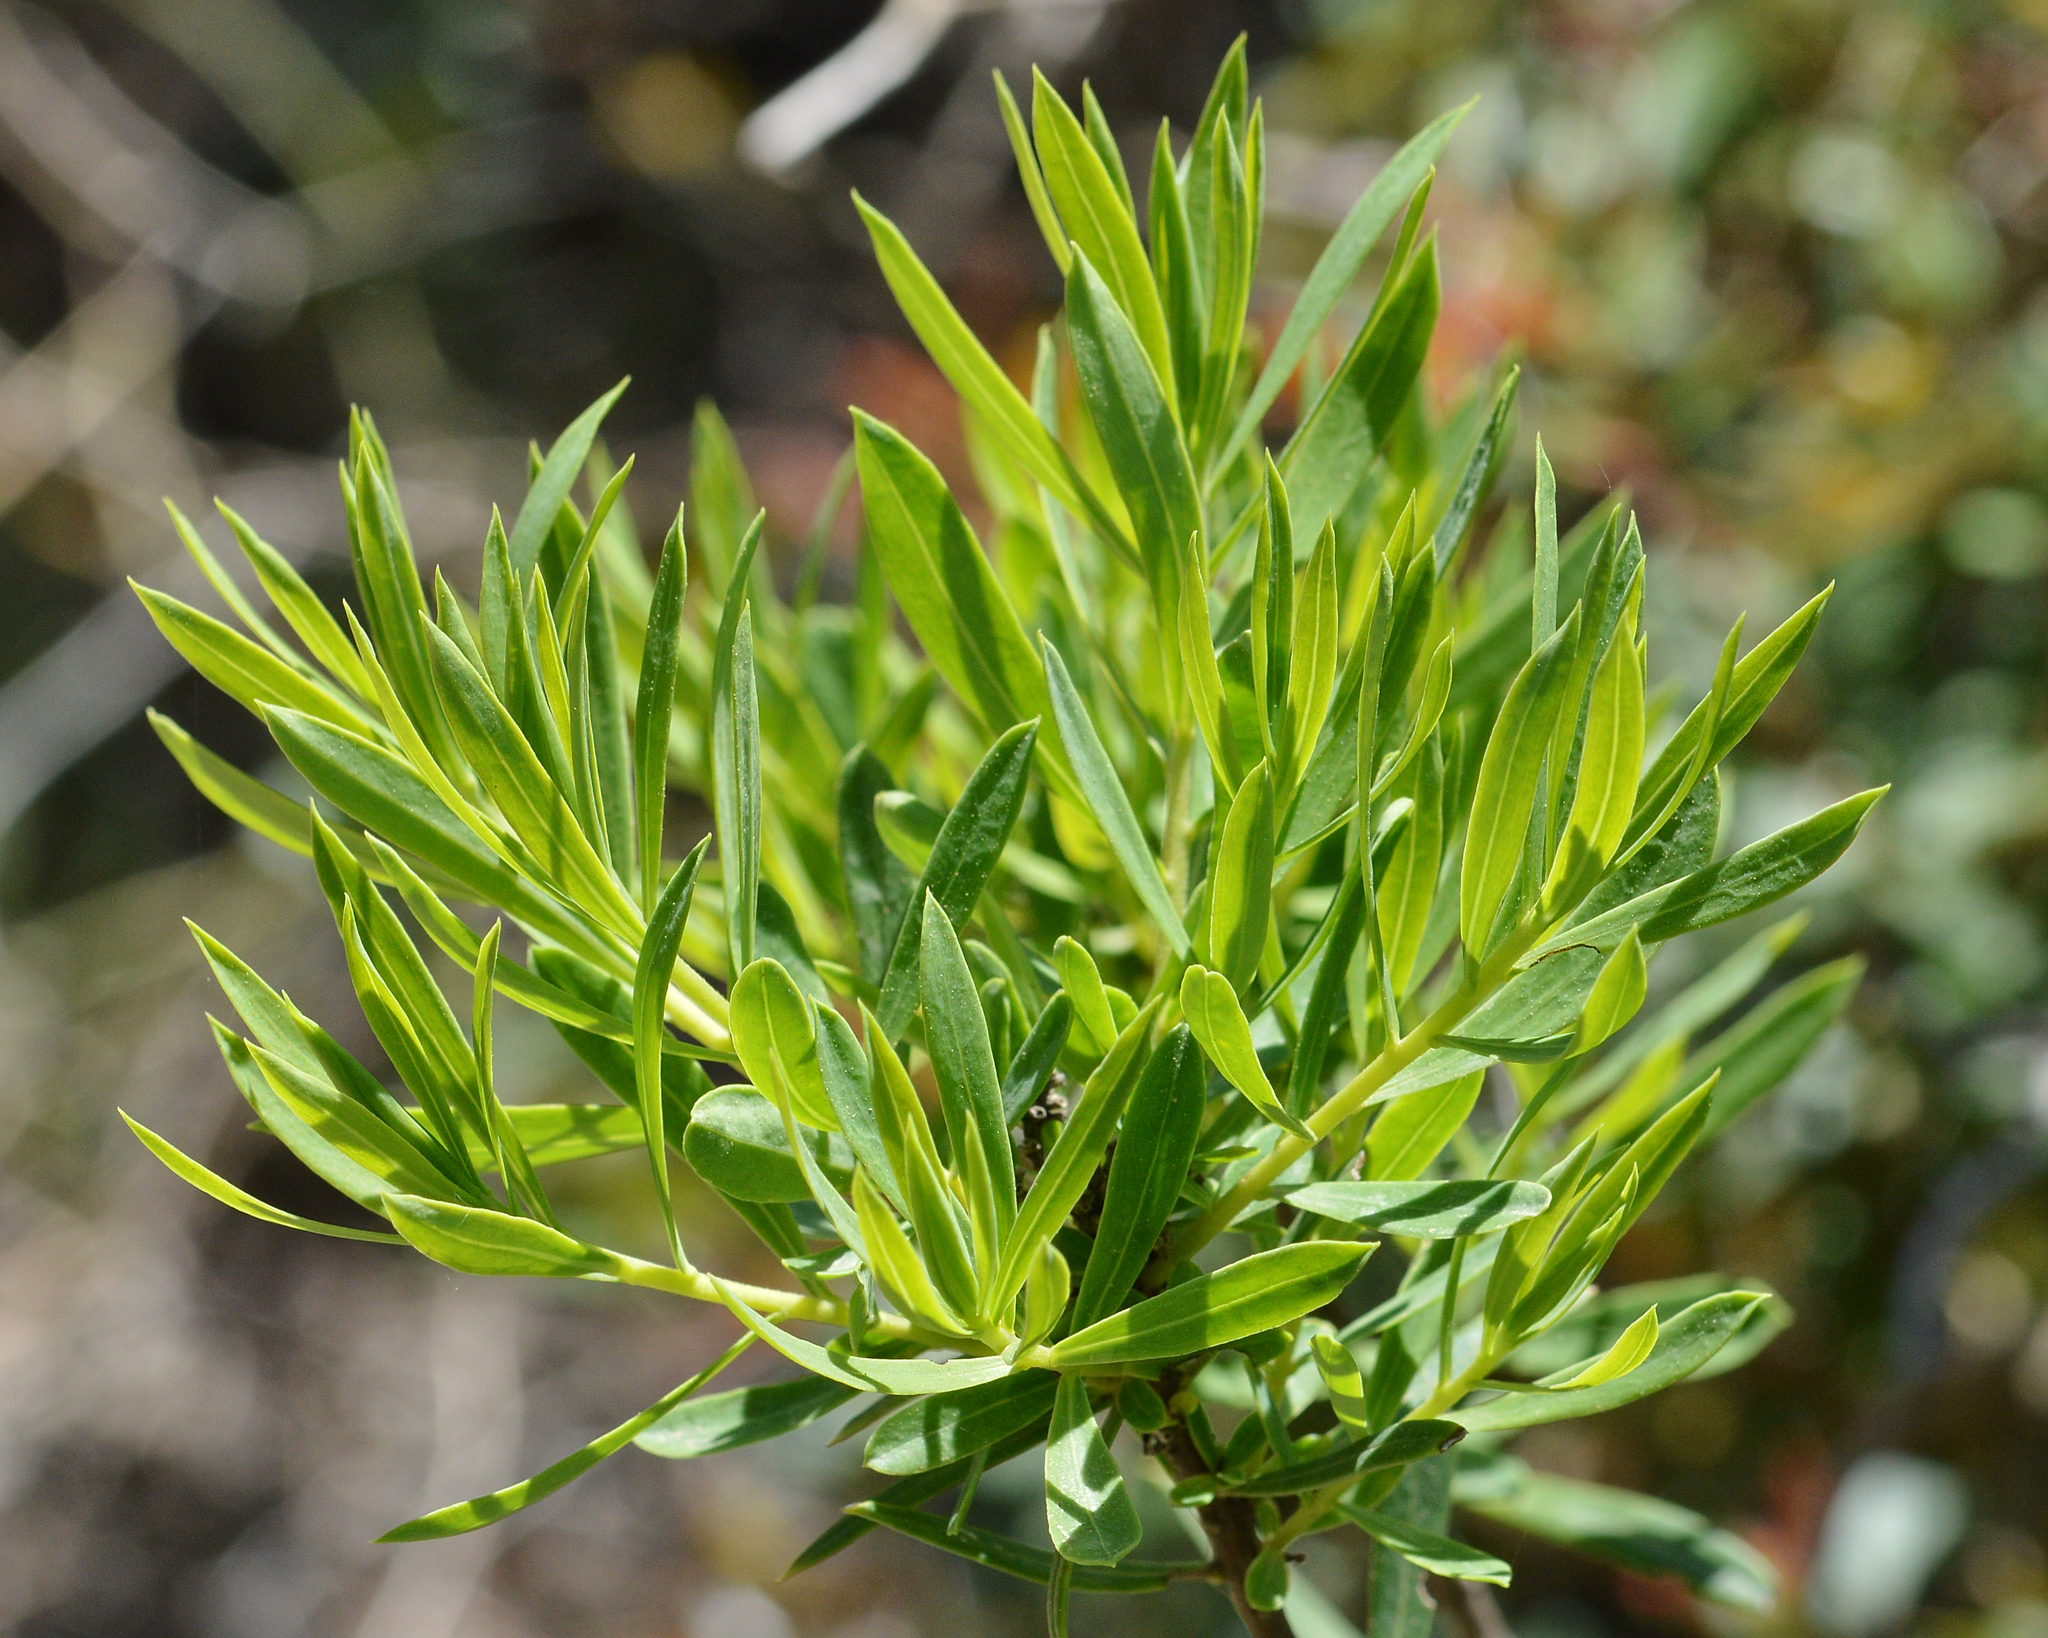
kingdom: Plantae
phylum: Tracheophyta
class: Magnoliopsida
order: Malvales
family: Thymelaeaceae
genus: Daphne
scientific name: Daphne gnidium
